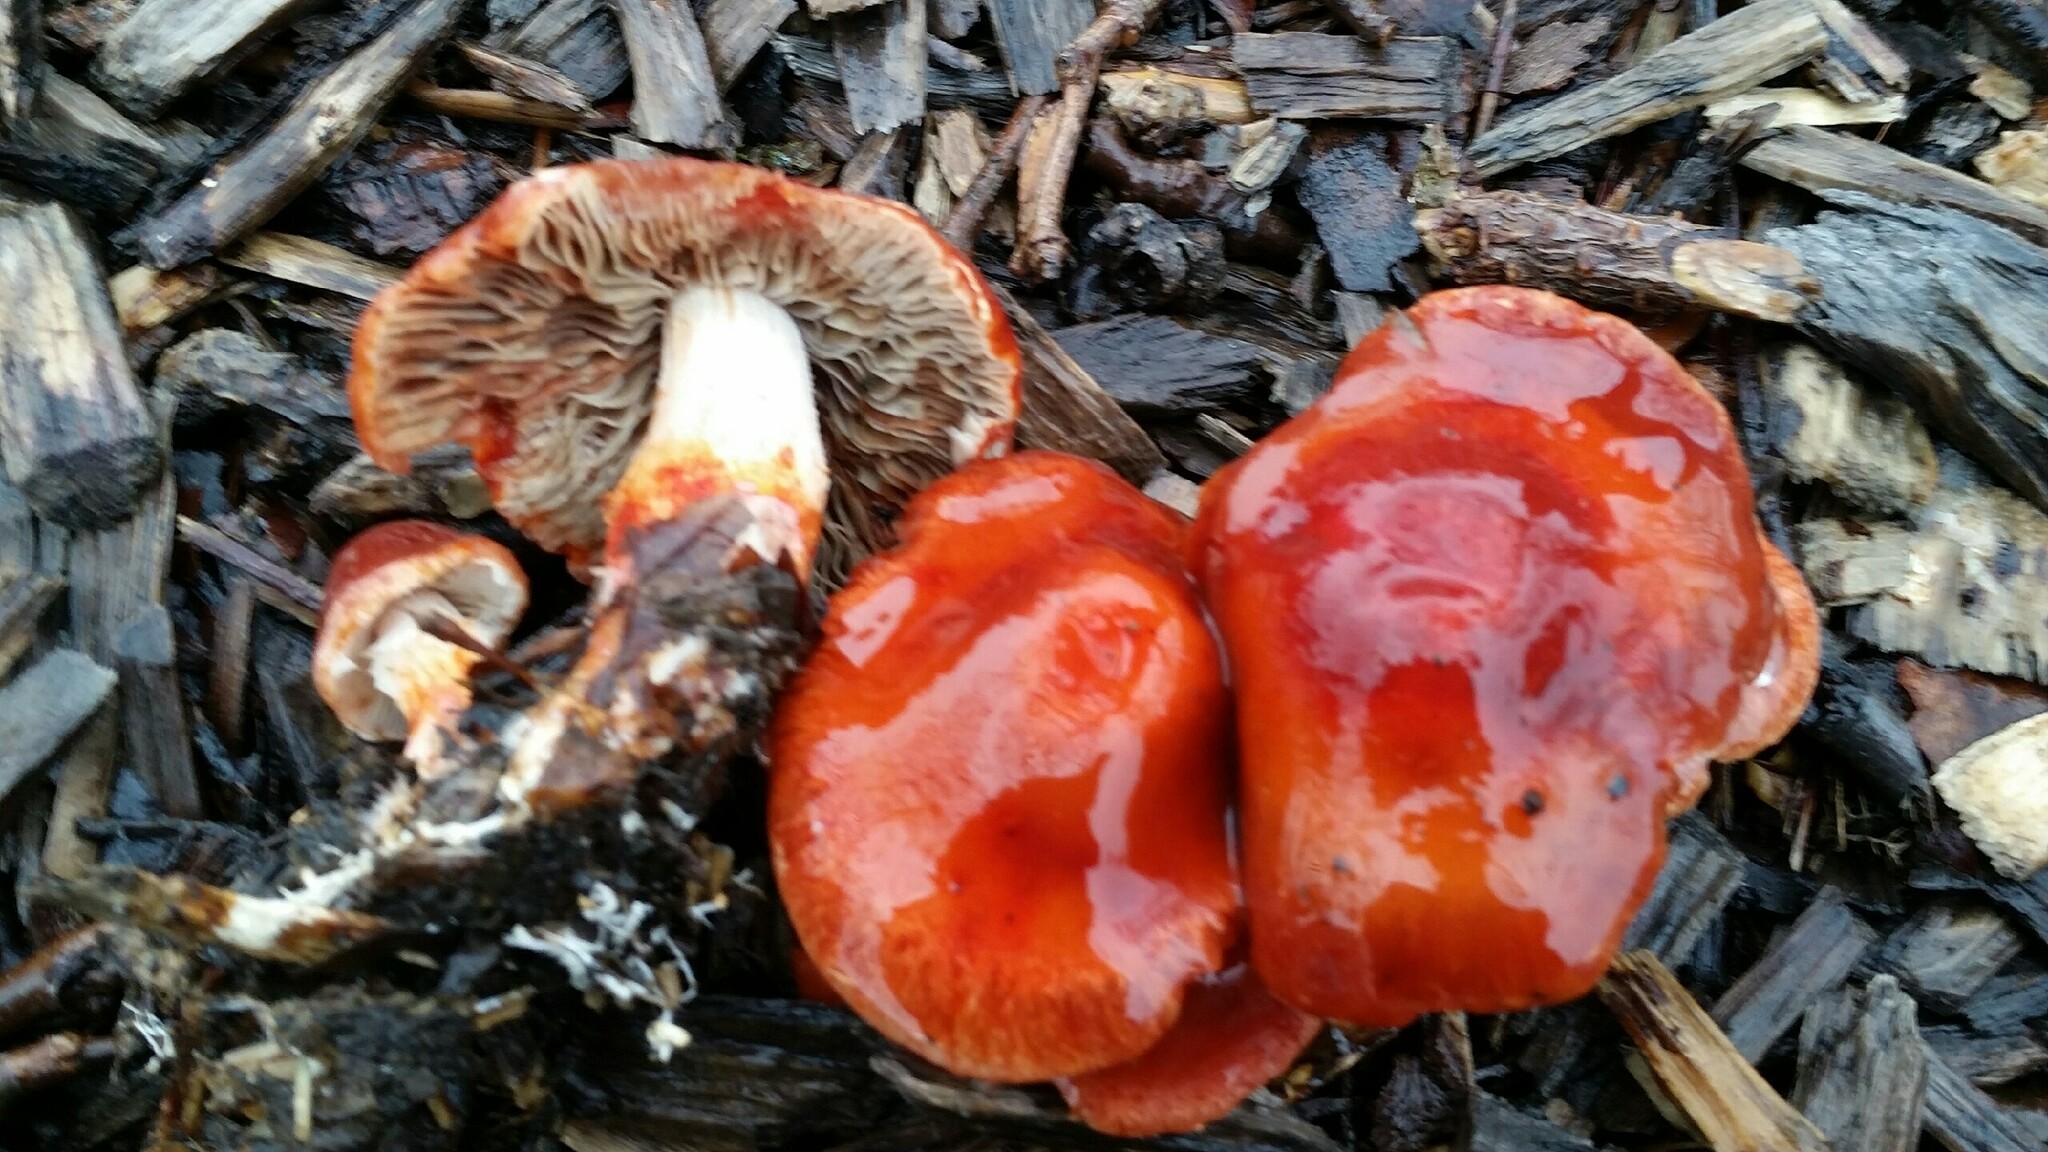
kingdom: Fungi
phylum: Basidiomycota
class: Agaricomycetes
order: Agaricales
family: Strophariaceae
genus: Leratiomyces
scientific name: Leratiomyces ceres
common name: Redlead roundhead
